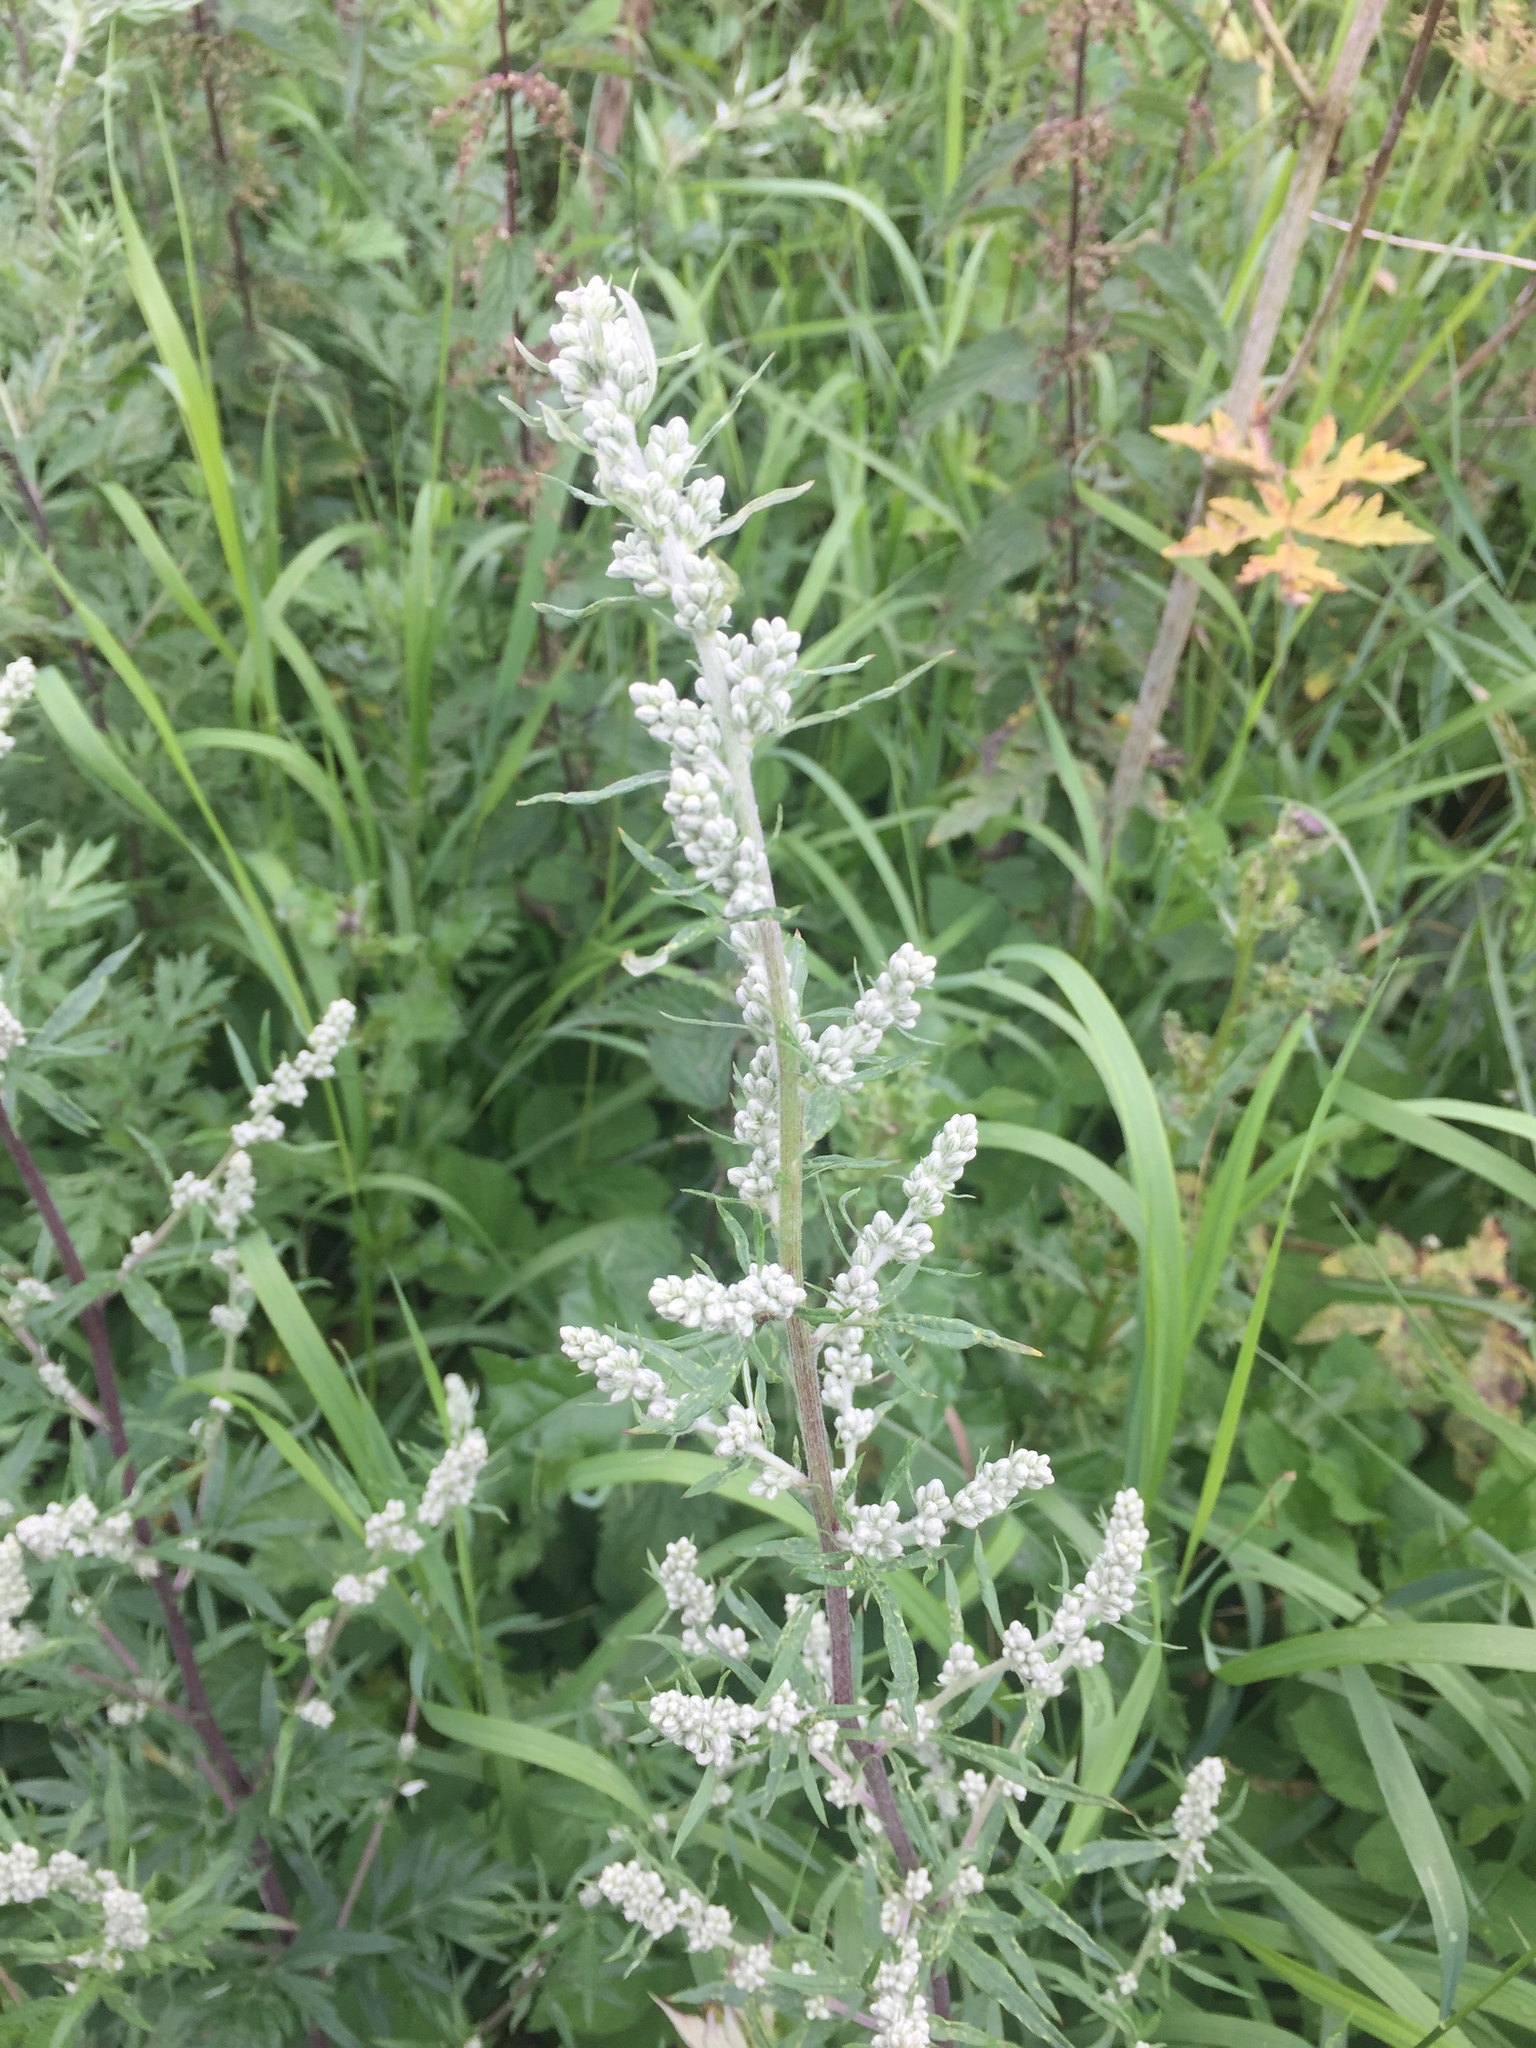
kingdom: Plantae
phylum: Tracheophyta
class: Magnoliopsida
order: Asterales
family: Asteraceae
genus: Artemisia
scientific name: Artemisia vulgaris
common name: Mugwort
